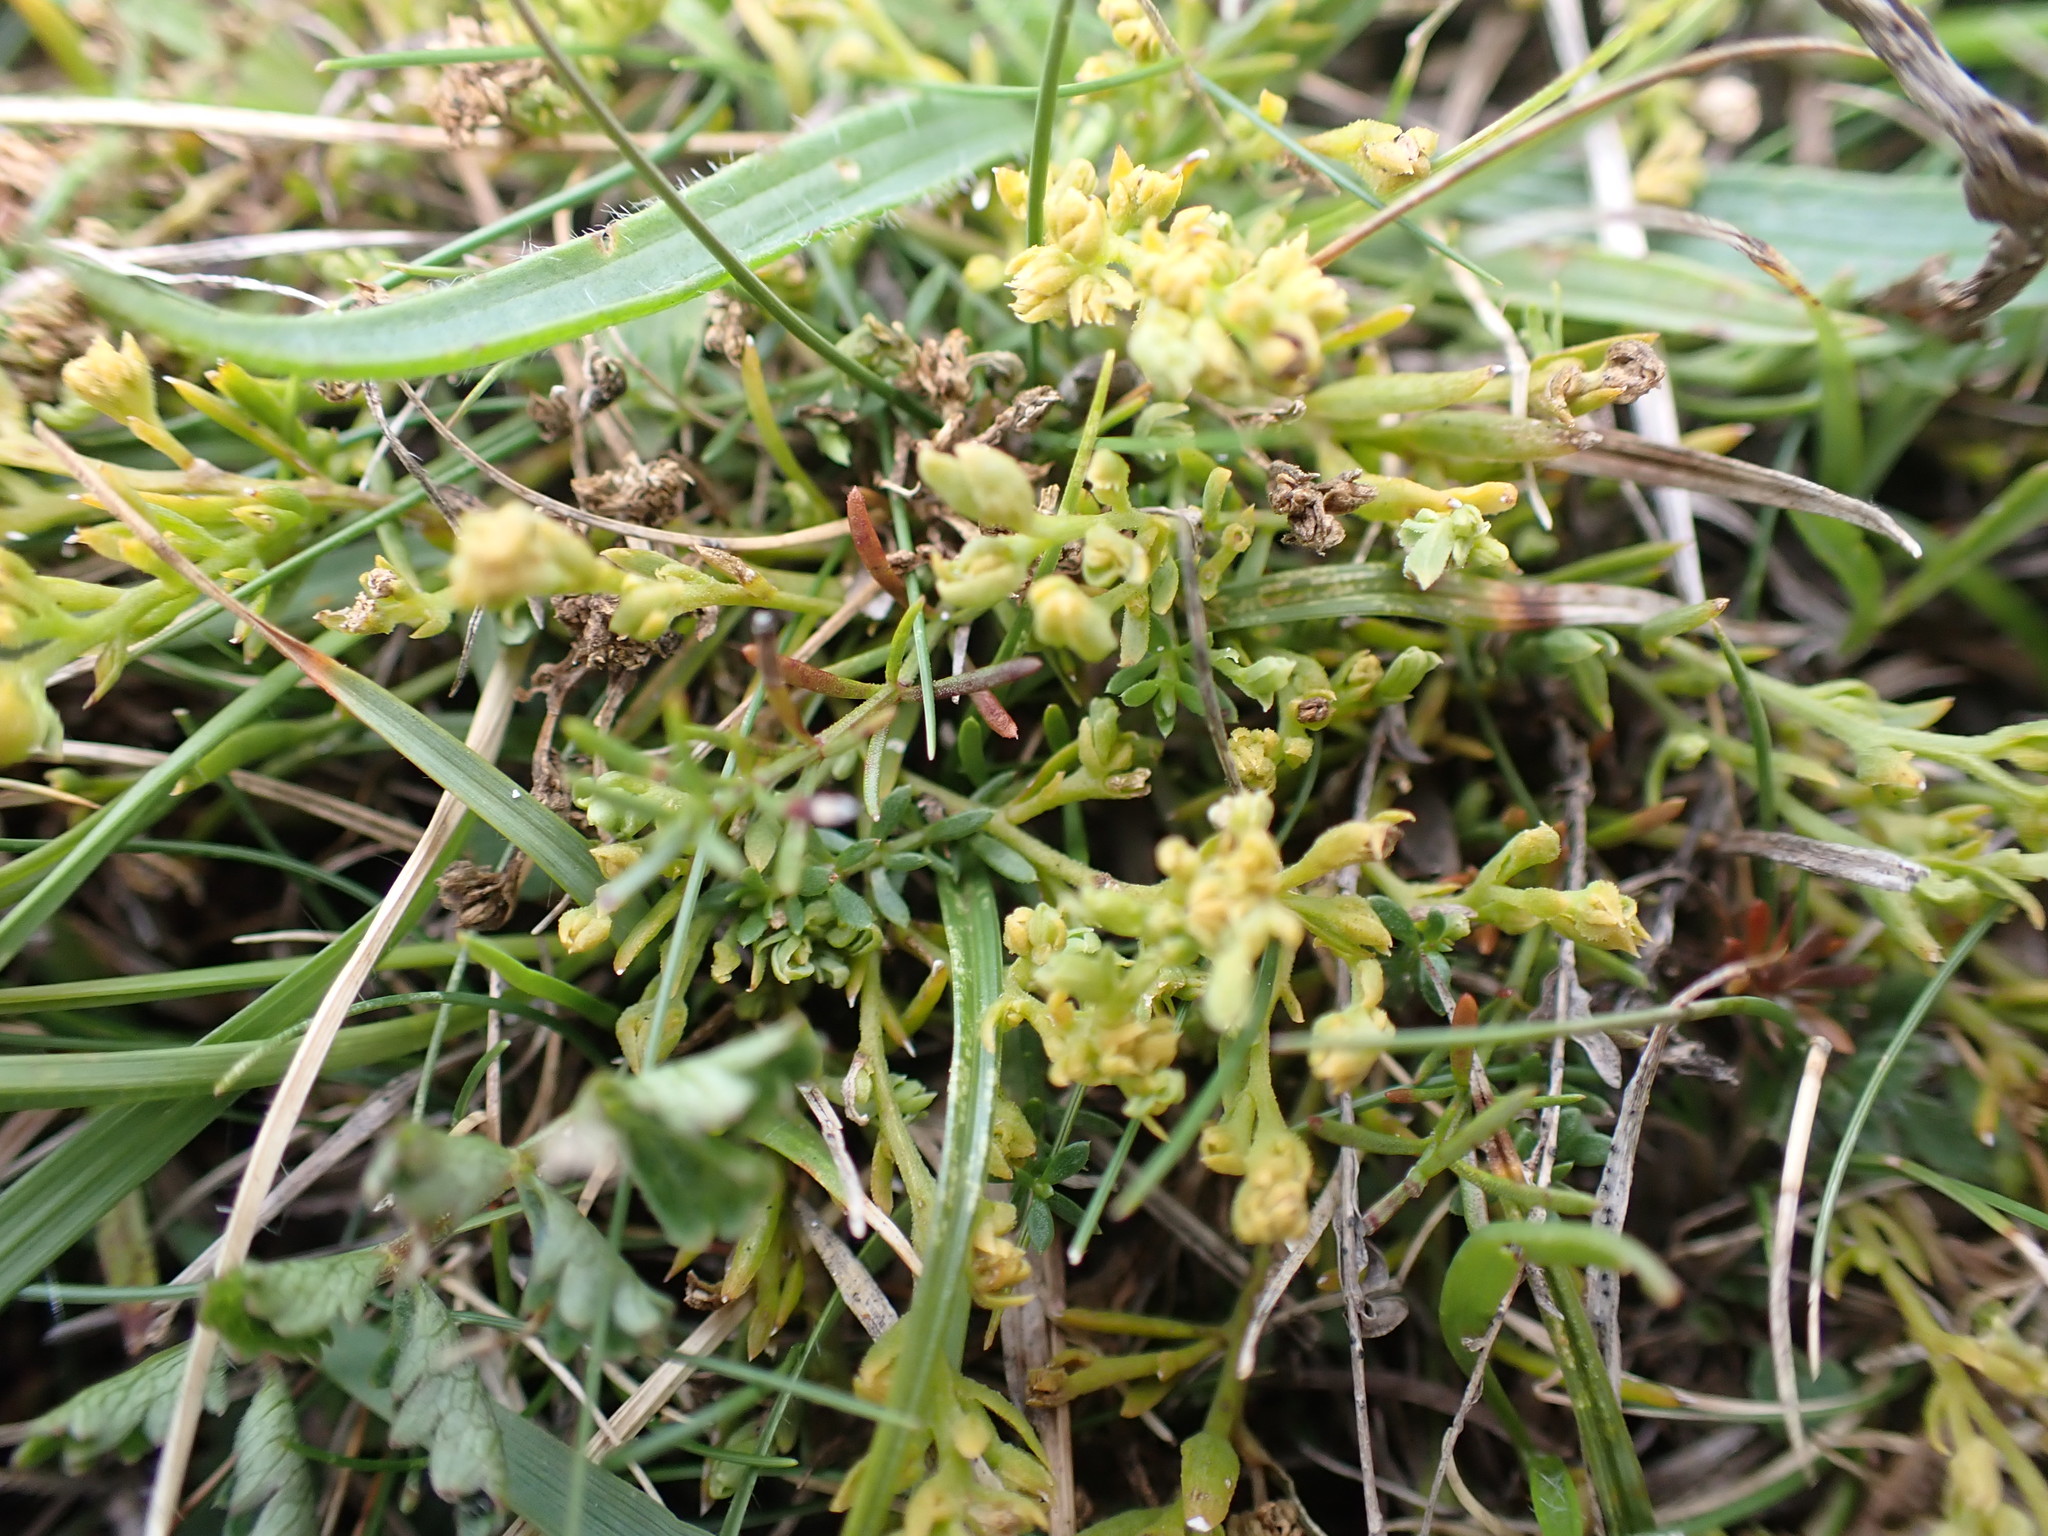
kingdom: Plantae
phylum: Tracheophyta
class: Magnoliopsida
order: Santalales
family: Thesiaceae
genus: Thesium
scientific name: Thesium humifusum
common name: Bastard-toadflax
